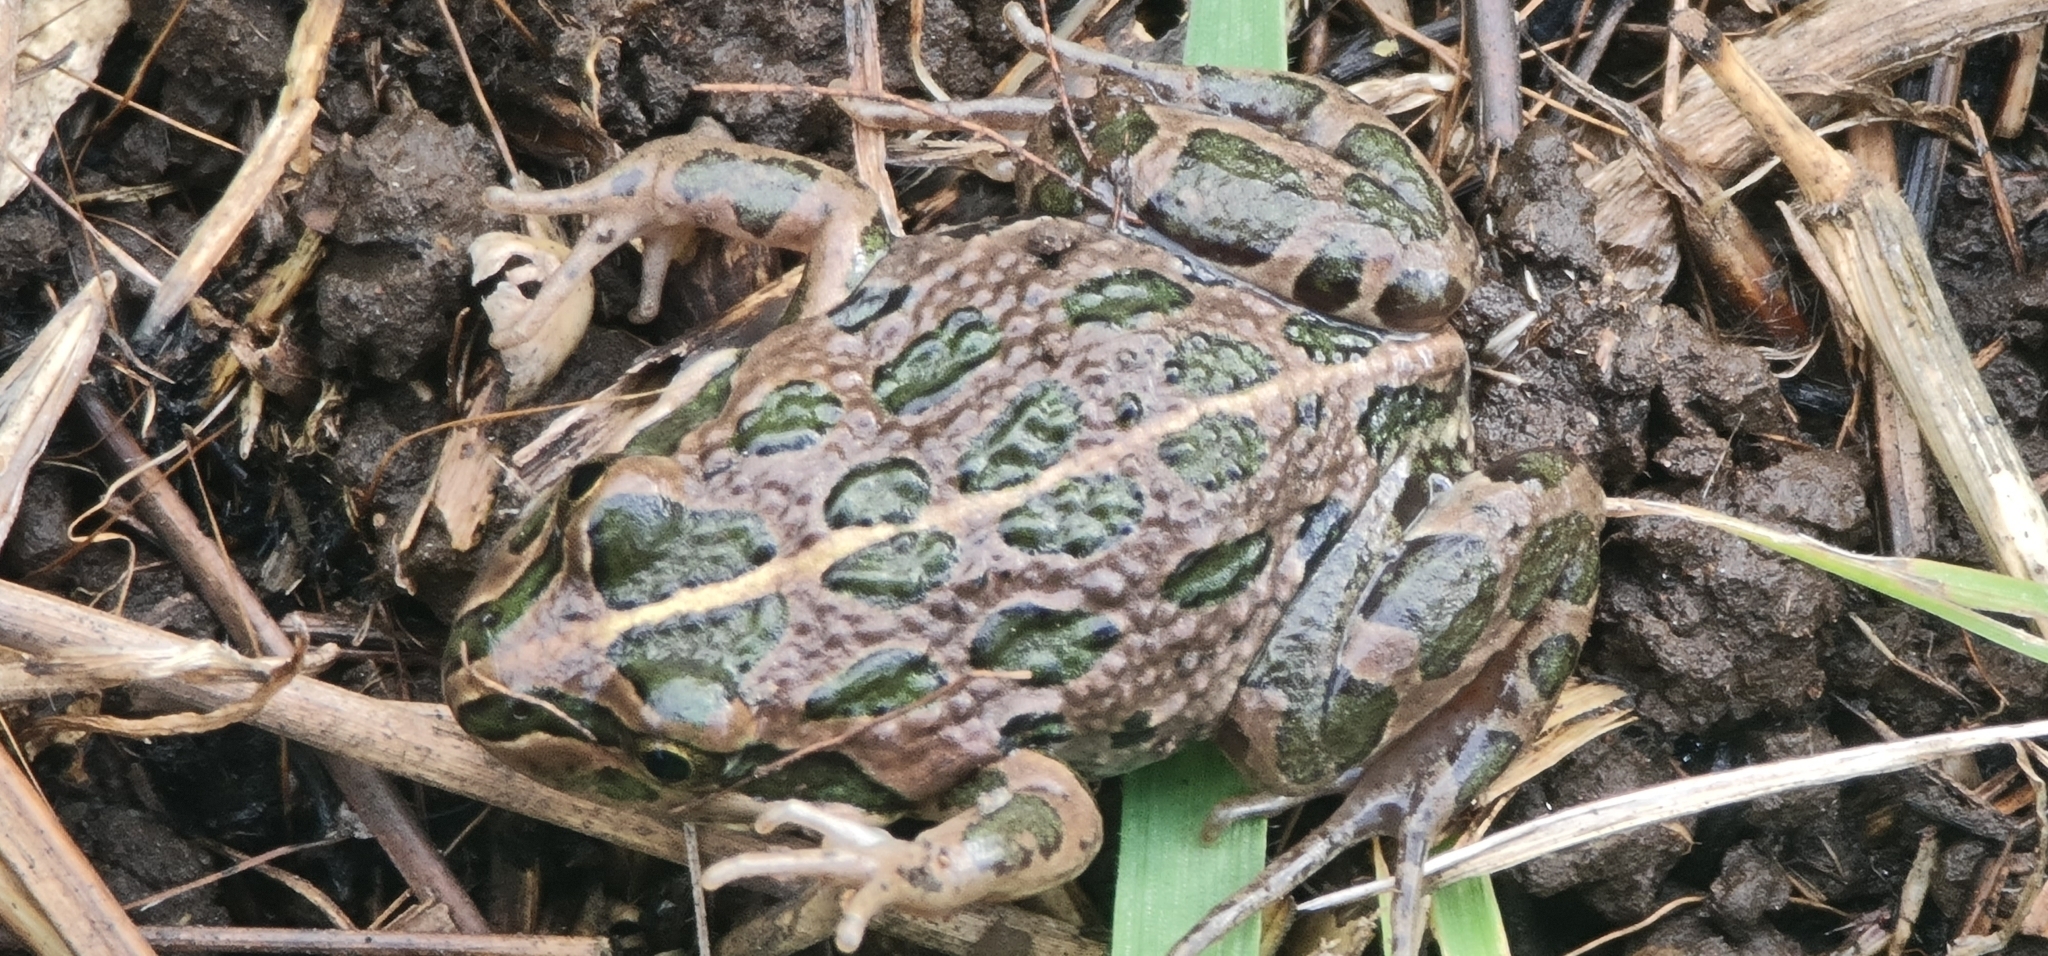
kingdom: Animalia
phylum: Chordata
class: Amphibia
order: Anura
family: Limnodynastidae
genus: Limnodynastes
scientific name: Limnodynastes tasmaniensis
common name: Spotted marsh frog
